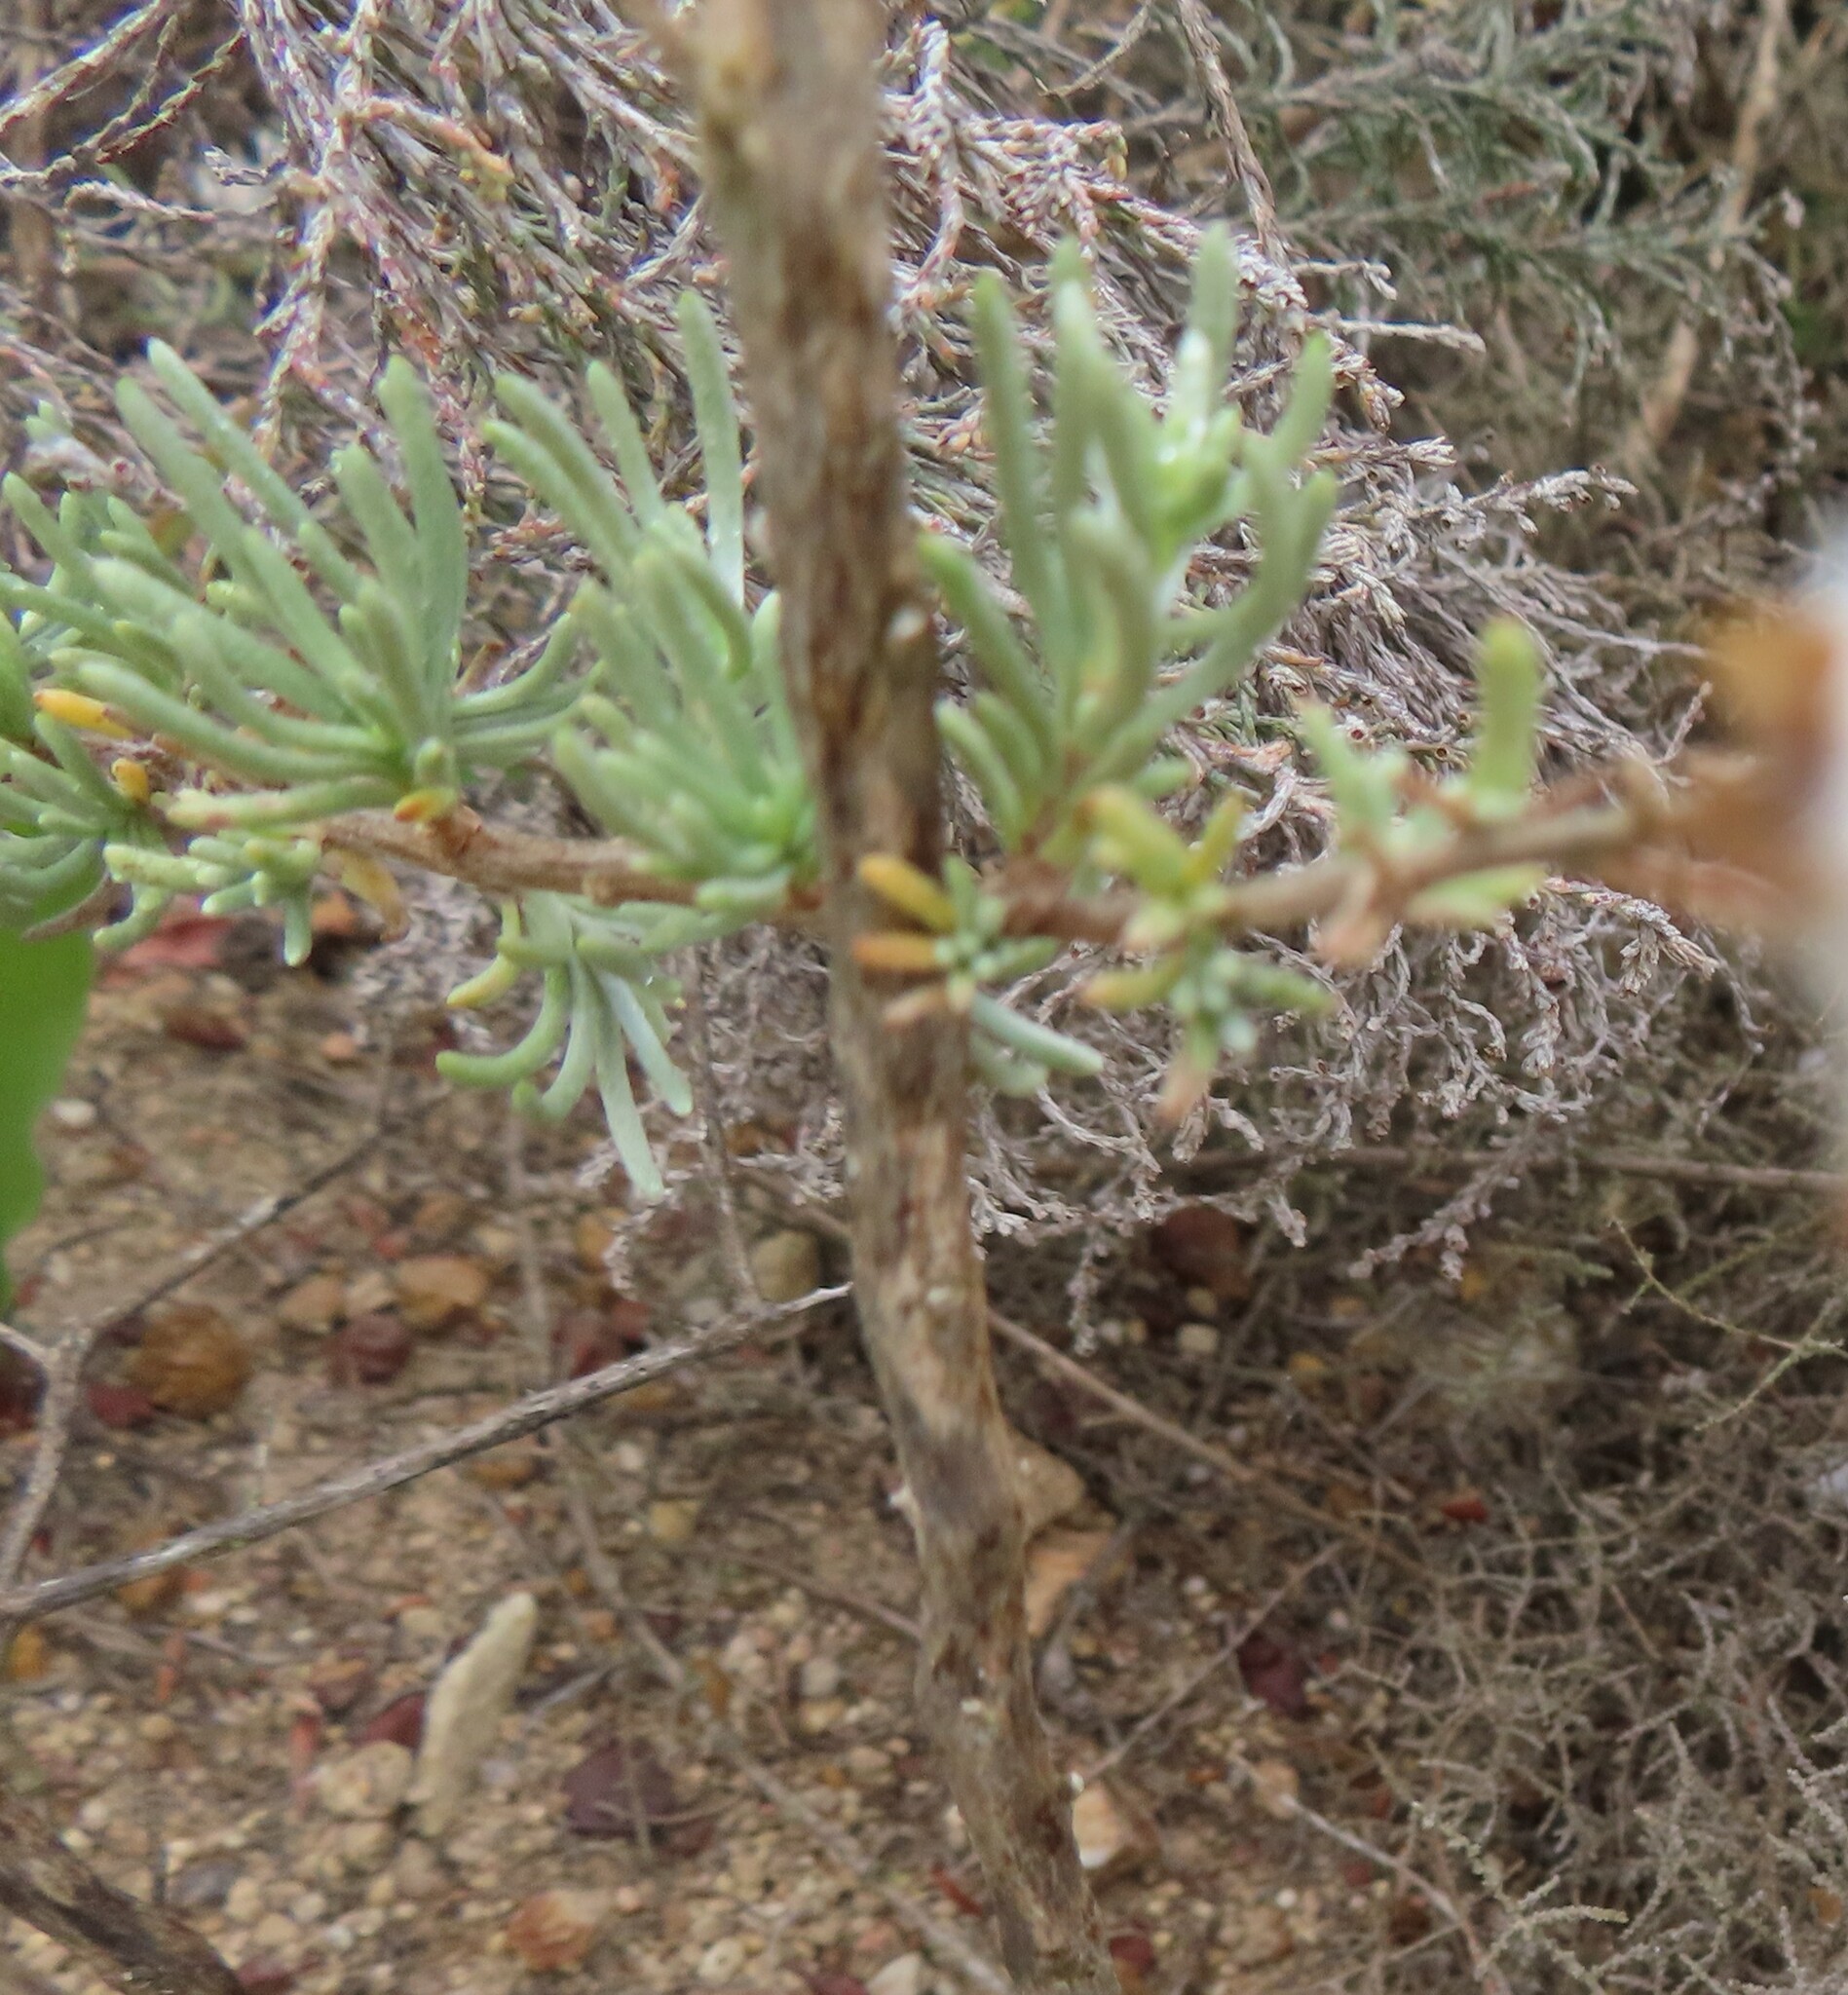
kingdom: Plantae
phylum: Tracheophyta
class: Magnoliopsida
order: Asterales
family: Asteraceae
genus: Eriocephalus
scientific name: Eriocephalus africanus
